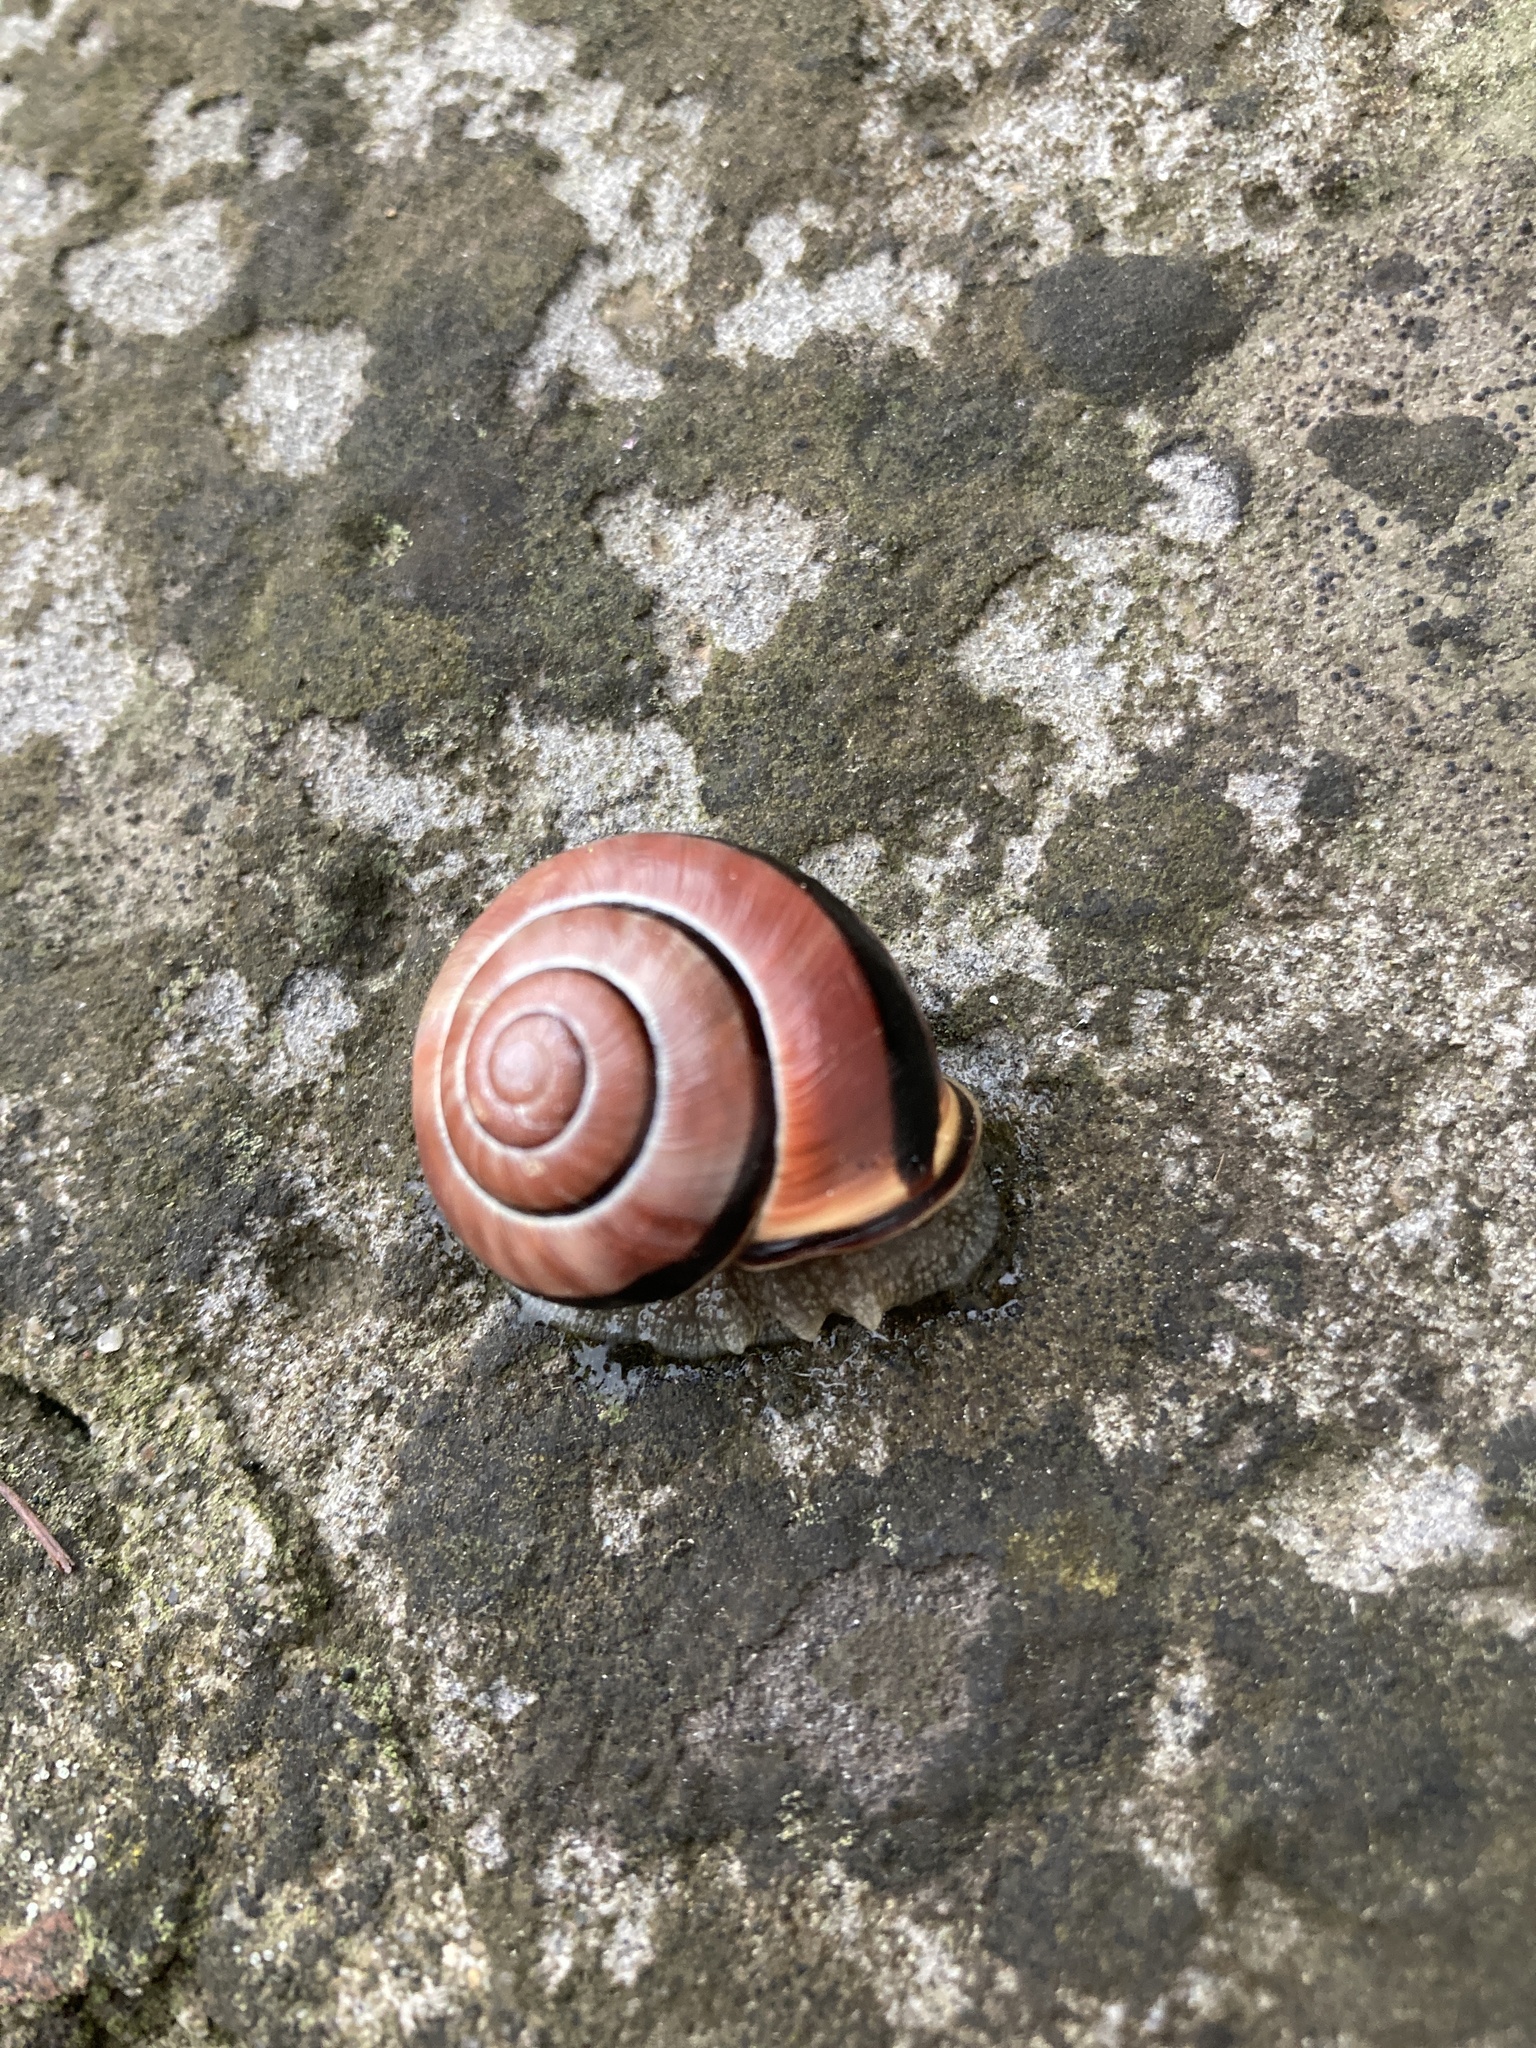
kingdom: Animalia
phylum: Mollusca
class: Gastropoda
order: Stylommatophora
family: Helicidae
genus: Cepaea
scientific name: Cepaea nemoralis
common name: Grovesnail
